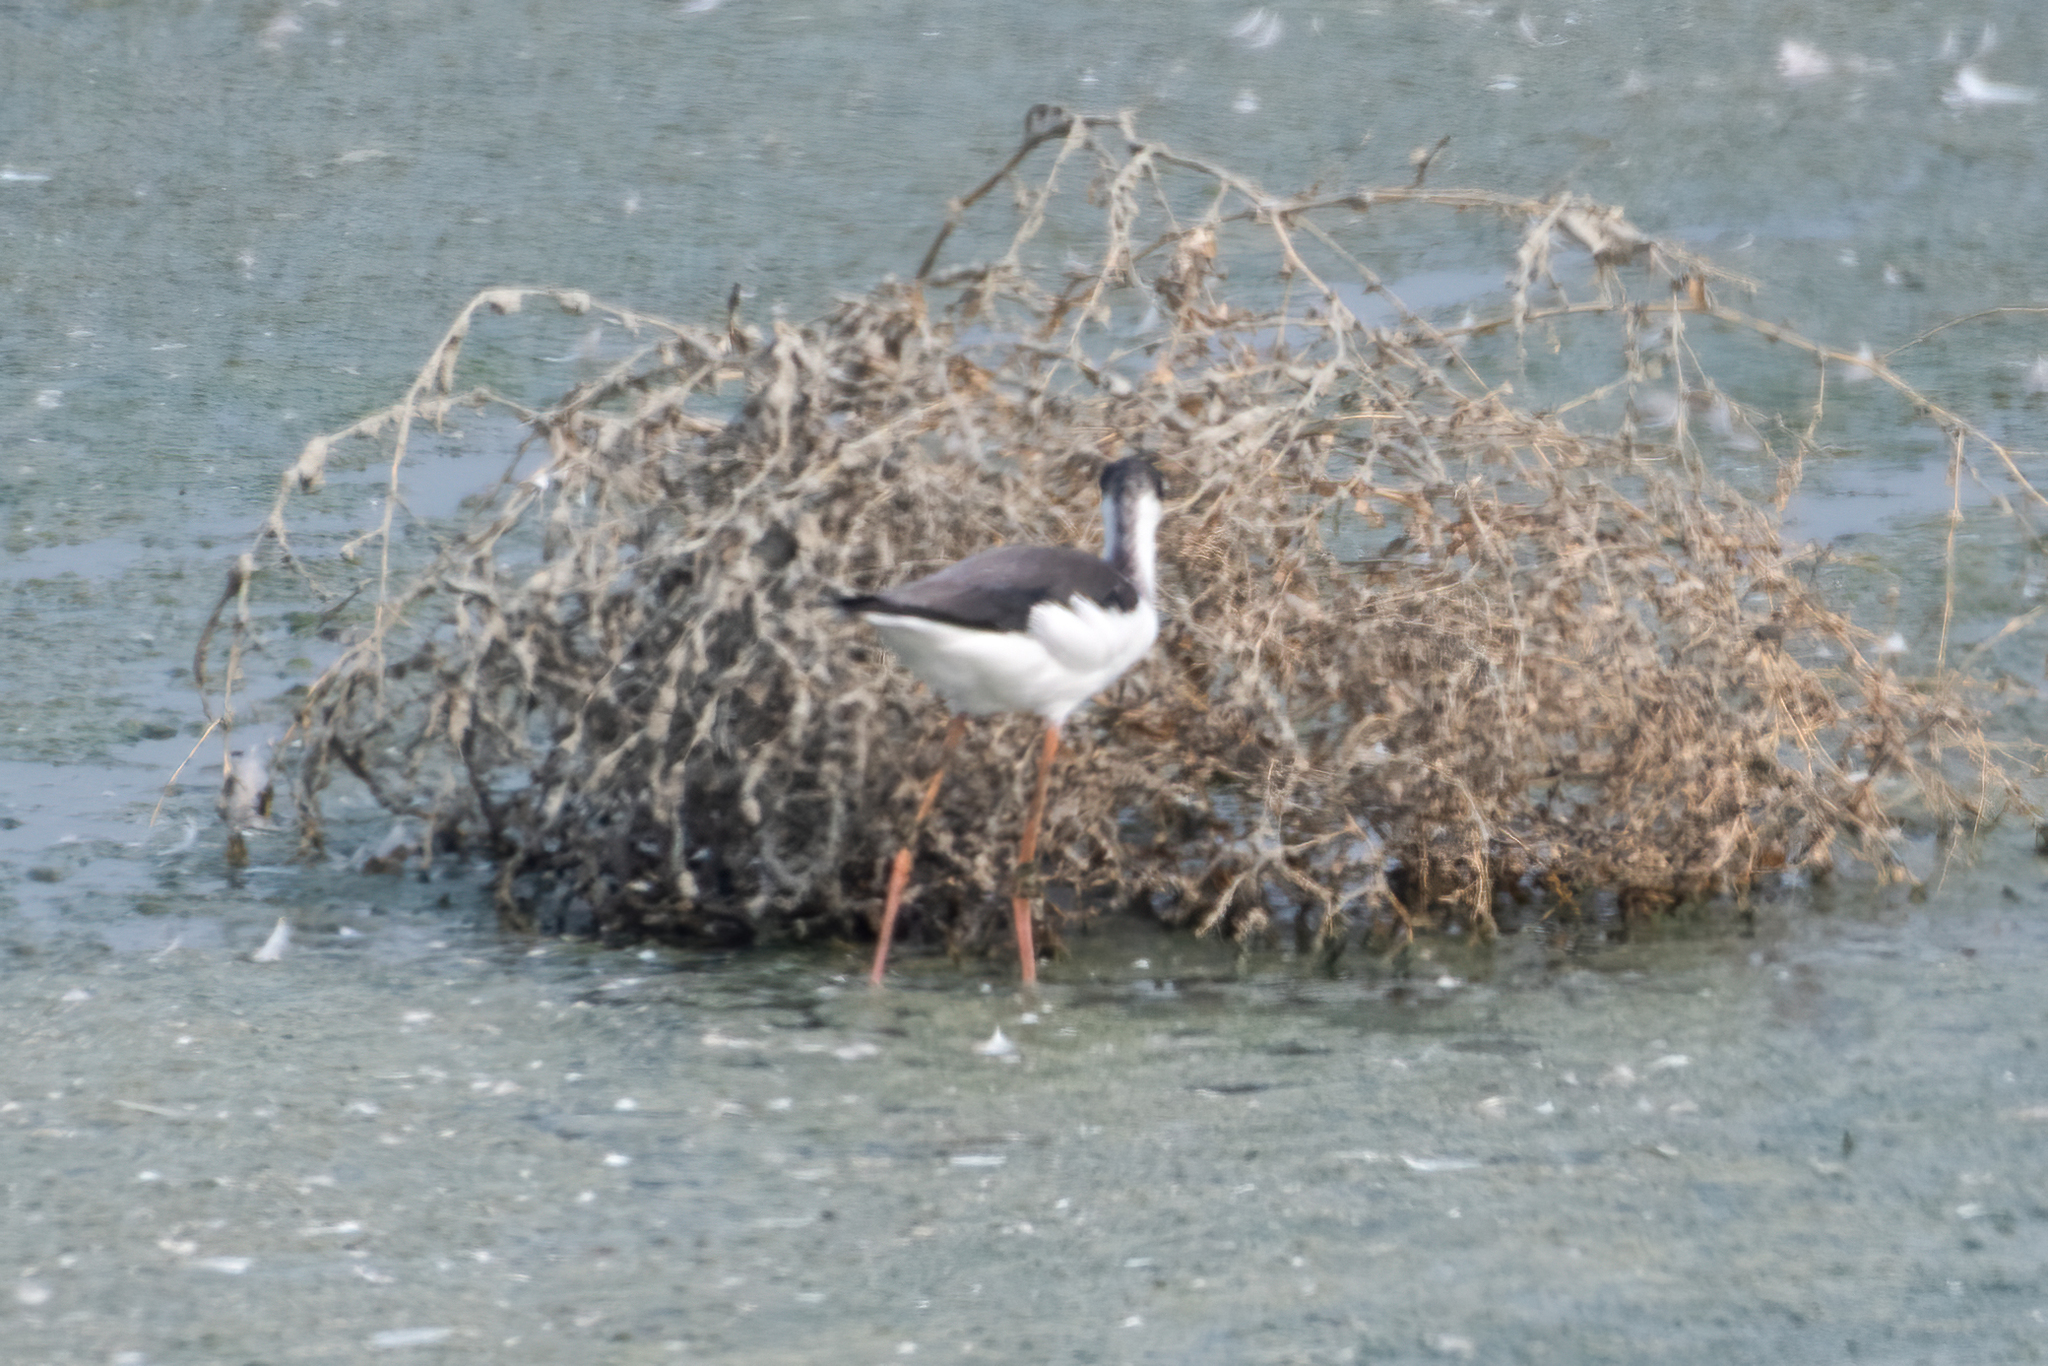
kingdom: Animalia
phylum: Chordata
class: Aves
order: Charadriiformes
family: Recurvirostridae
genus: Himantopus
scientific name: Himantopus mexicanus
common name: Black-necked stilt
